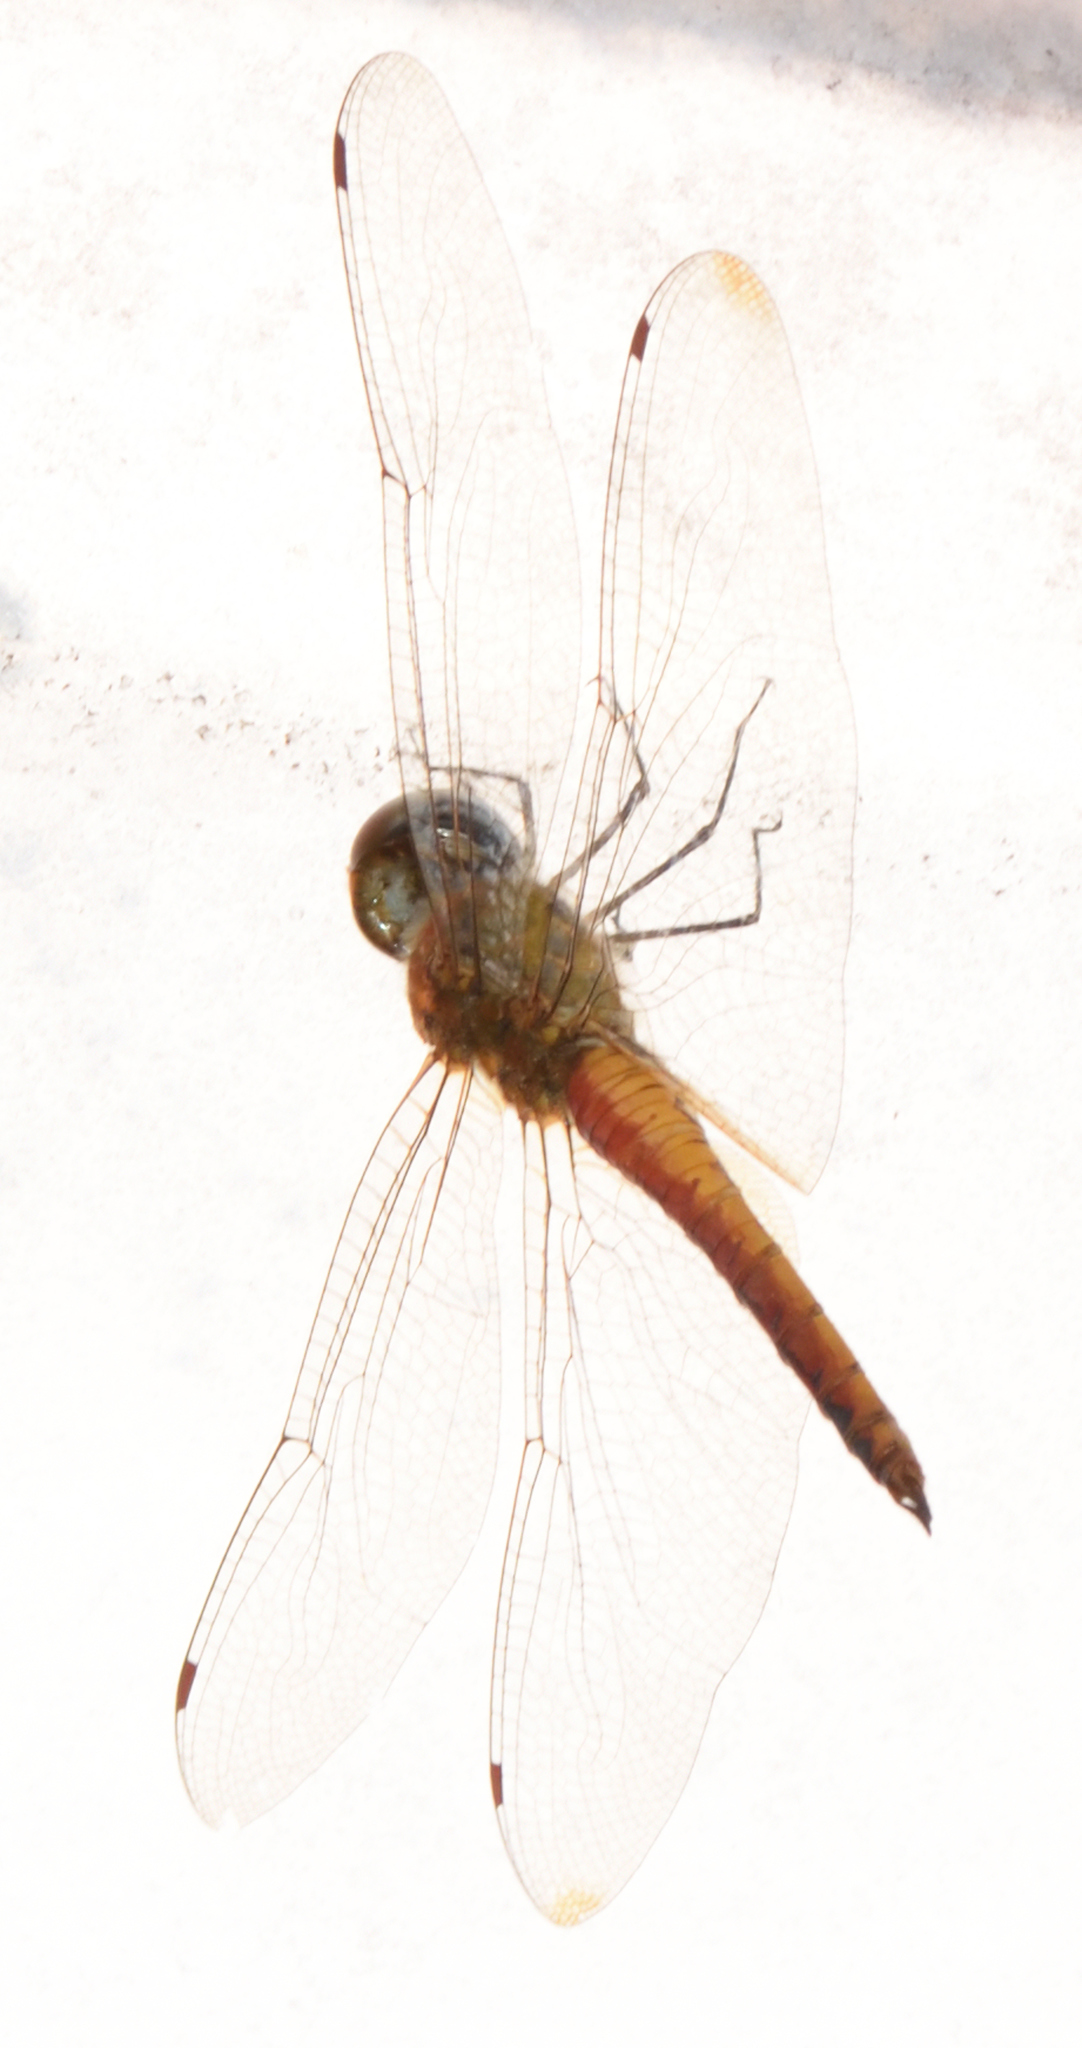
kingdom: Animalia
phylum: Arthropoda
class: Insecta
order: Odonata
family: Libellulidae
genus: Pantala
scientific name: Pantala flavescens
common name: Wandering glider
